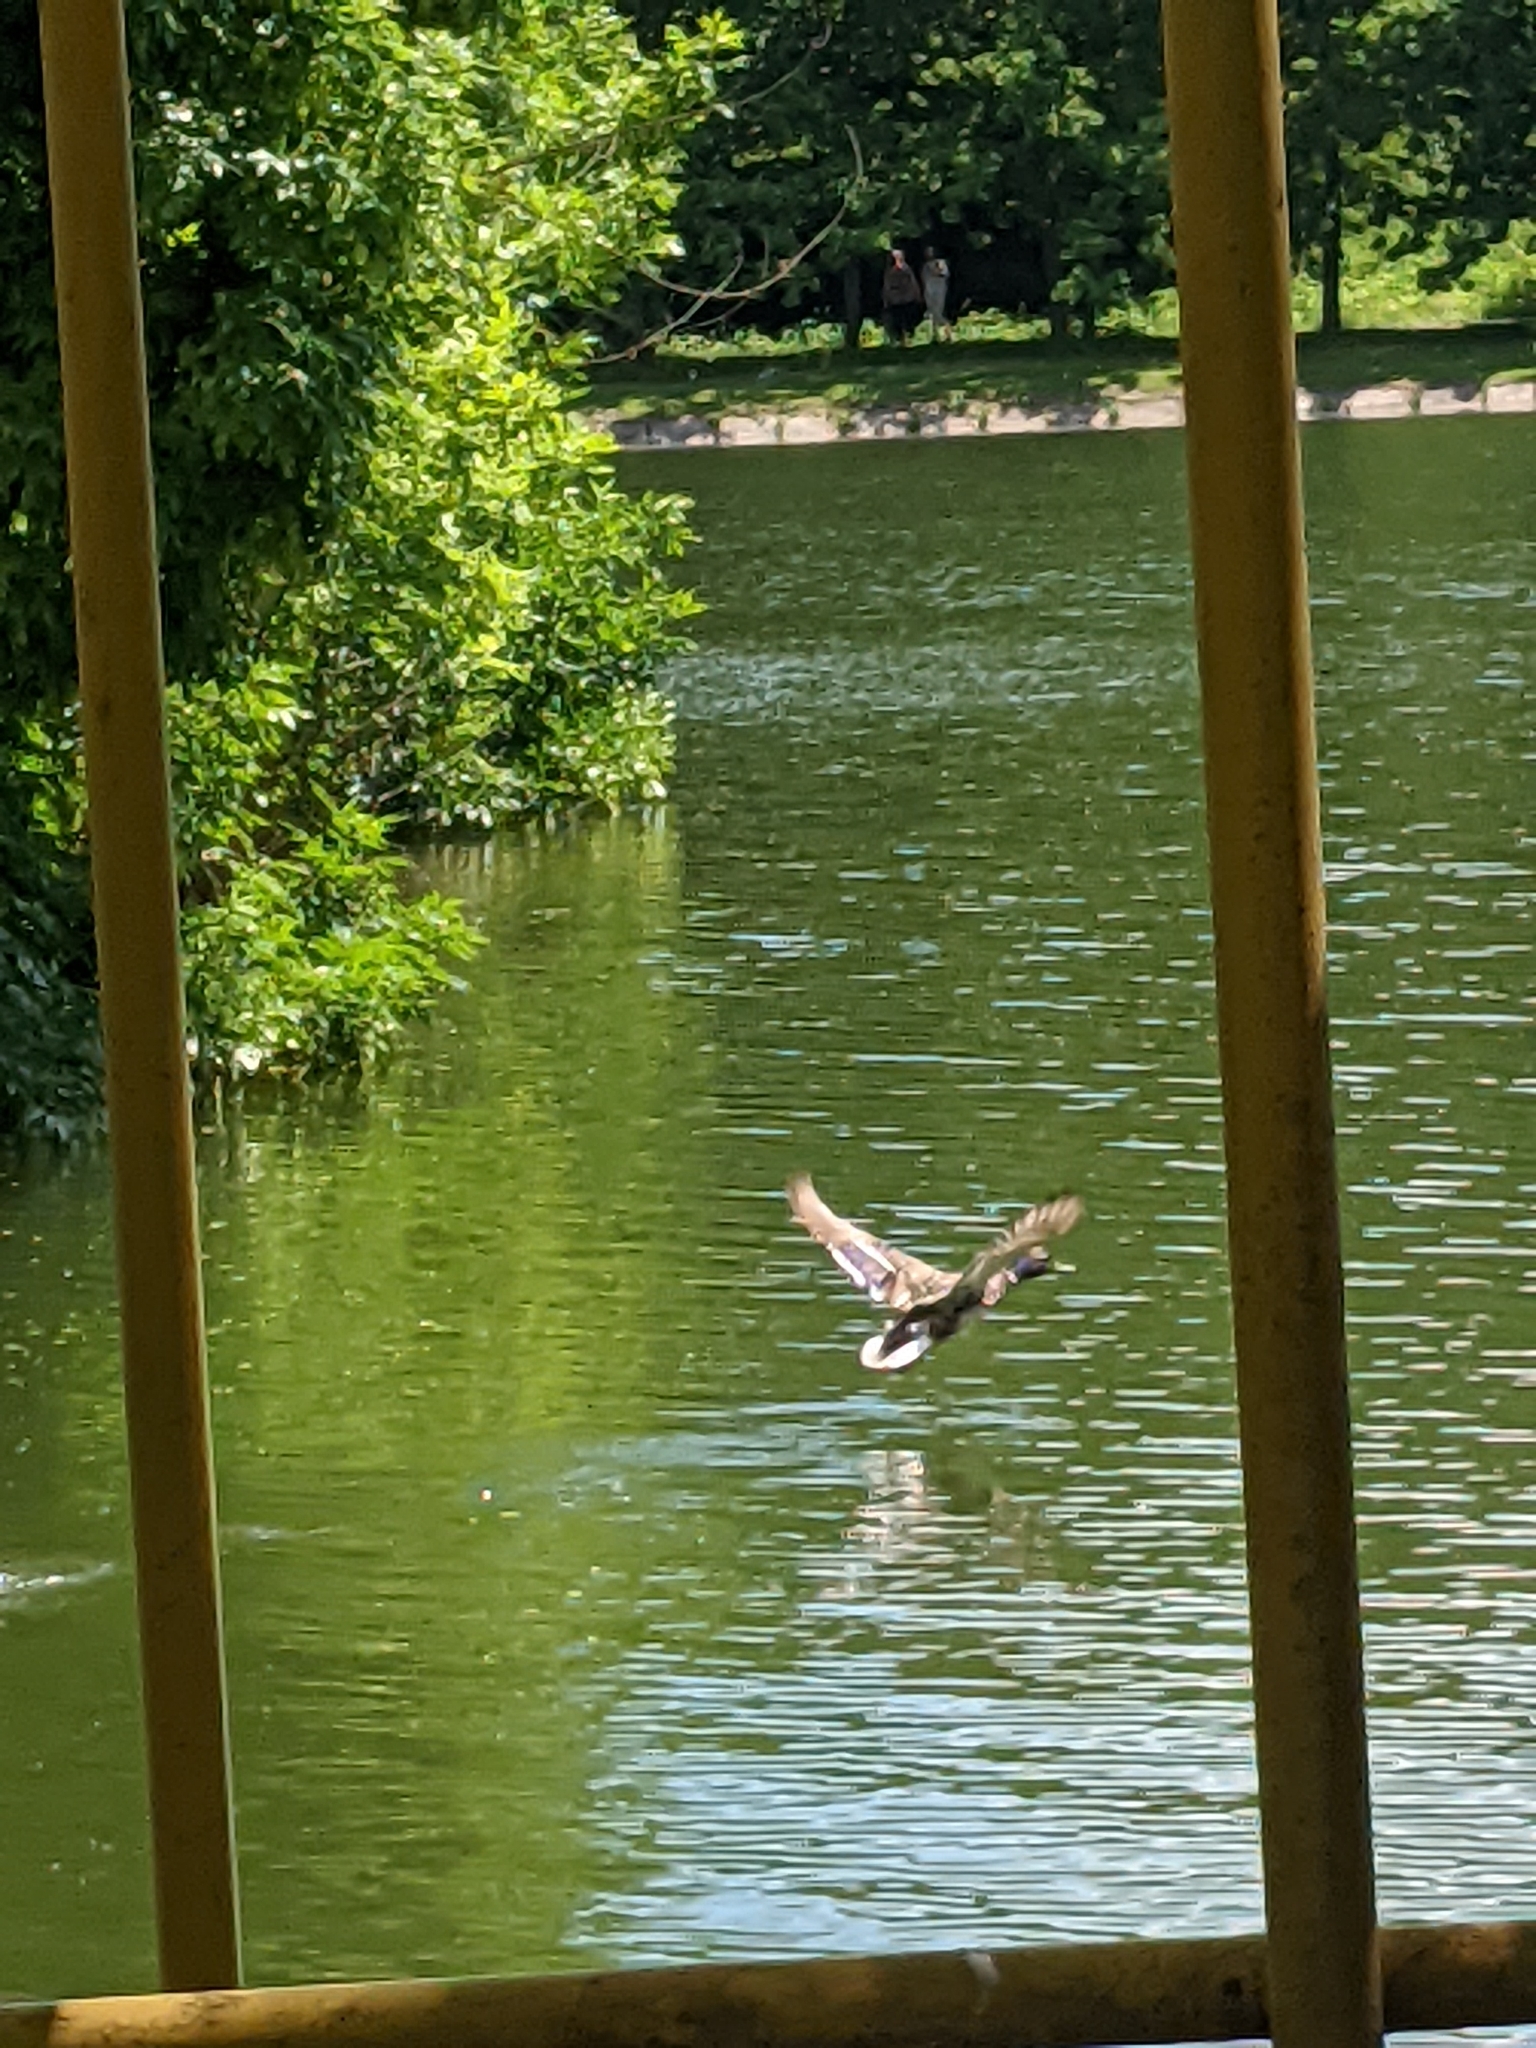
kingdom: Animalia
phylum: Chordata
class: Aves
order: Anseriformes
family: Anatidae
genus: Anas
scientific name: Anas platyrhynchos
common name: Mallard
